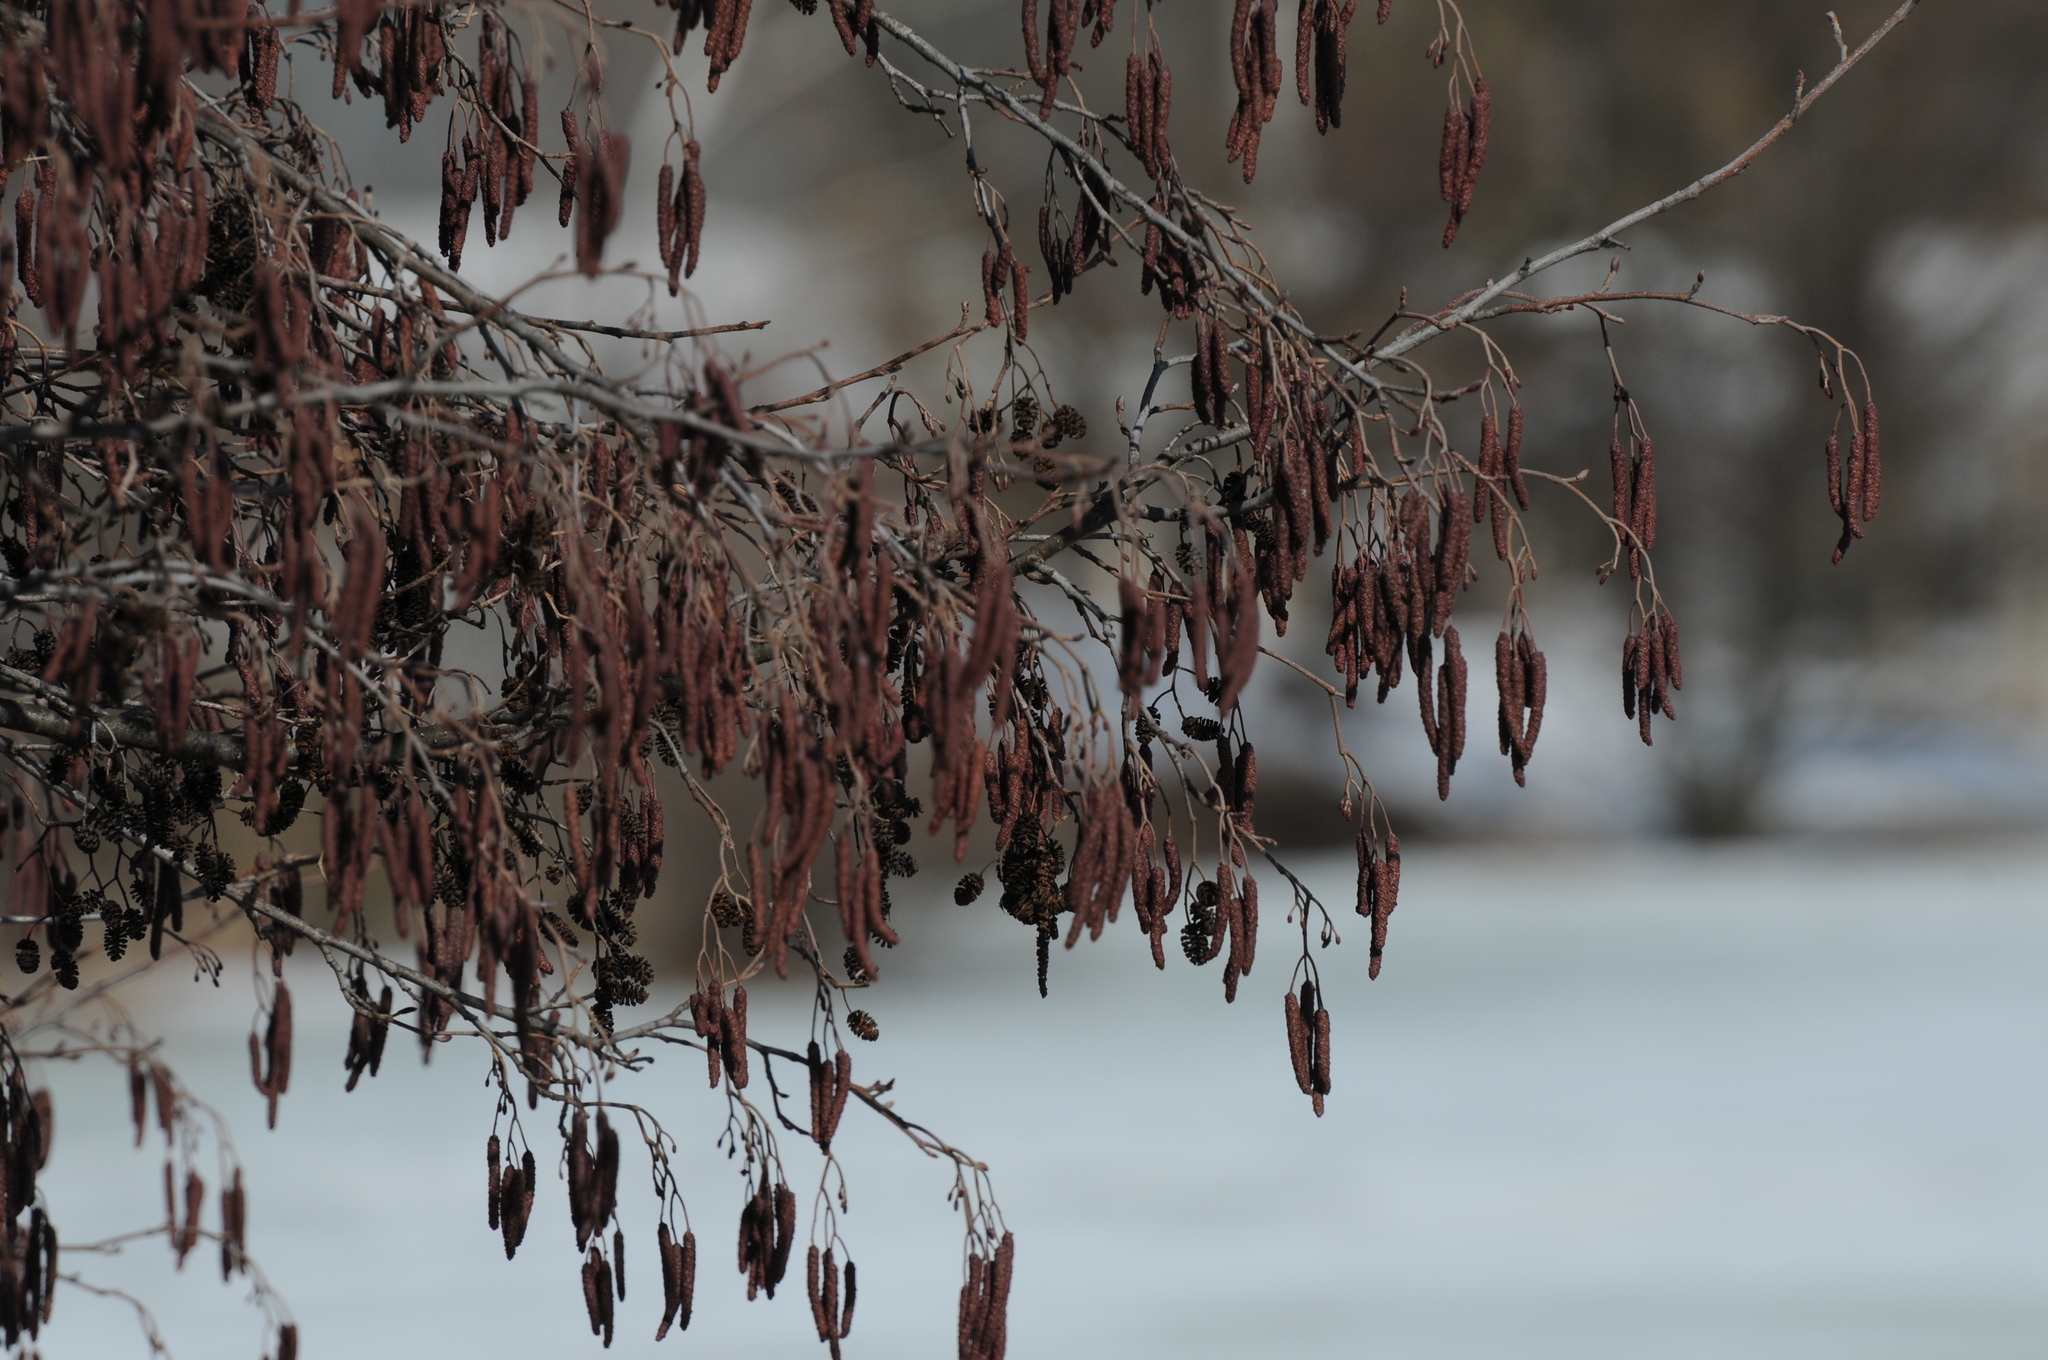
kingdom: Plantae
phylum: Tracheophyta
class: Magnoliopsida
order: Fagales
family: Betulaceae
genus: Alnus
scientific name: Alnus glutinosa
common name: Black alder
